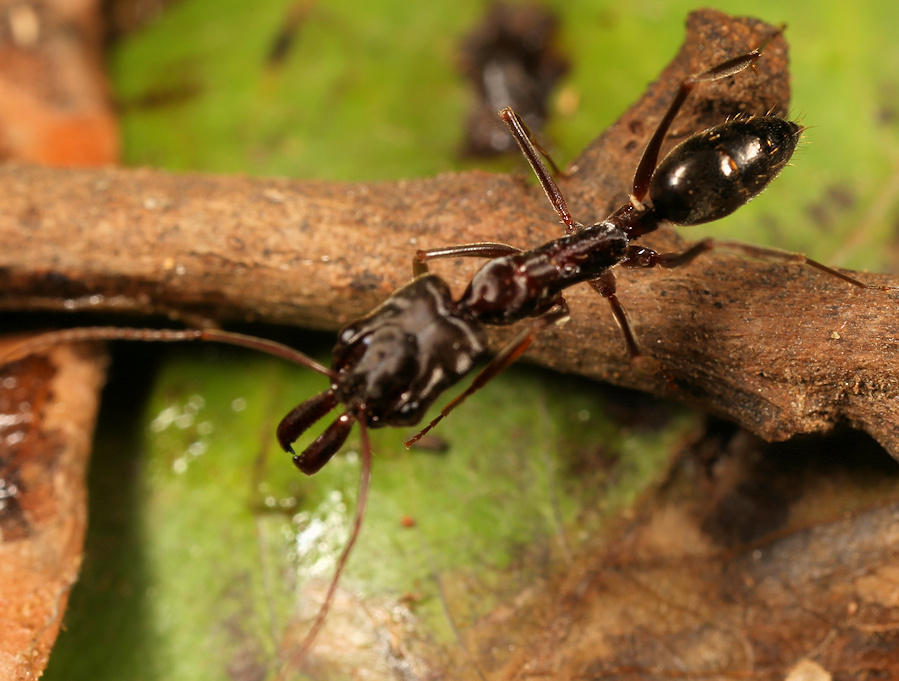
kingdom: Animalia
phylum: Arthropoda
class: Insecta
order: Hymenoptera
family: Formicidae
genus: Odontomachus
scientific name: Odontomachus troglodytes
